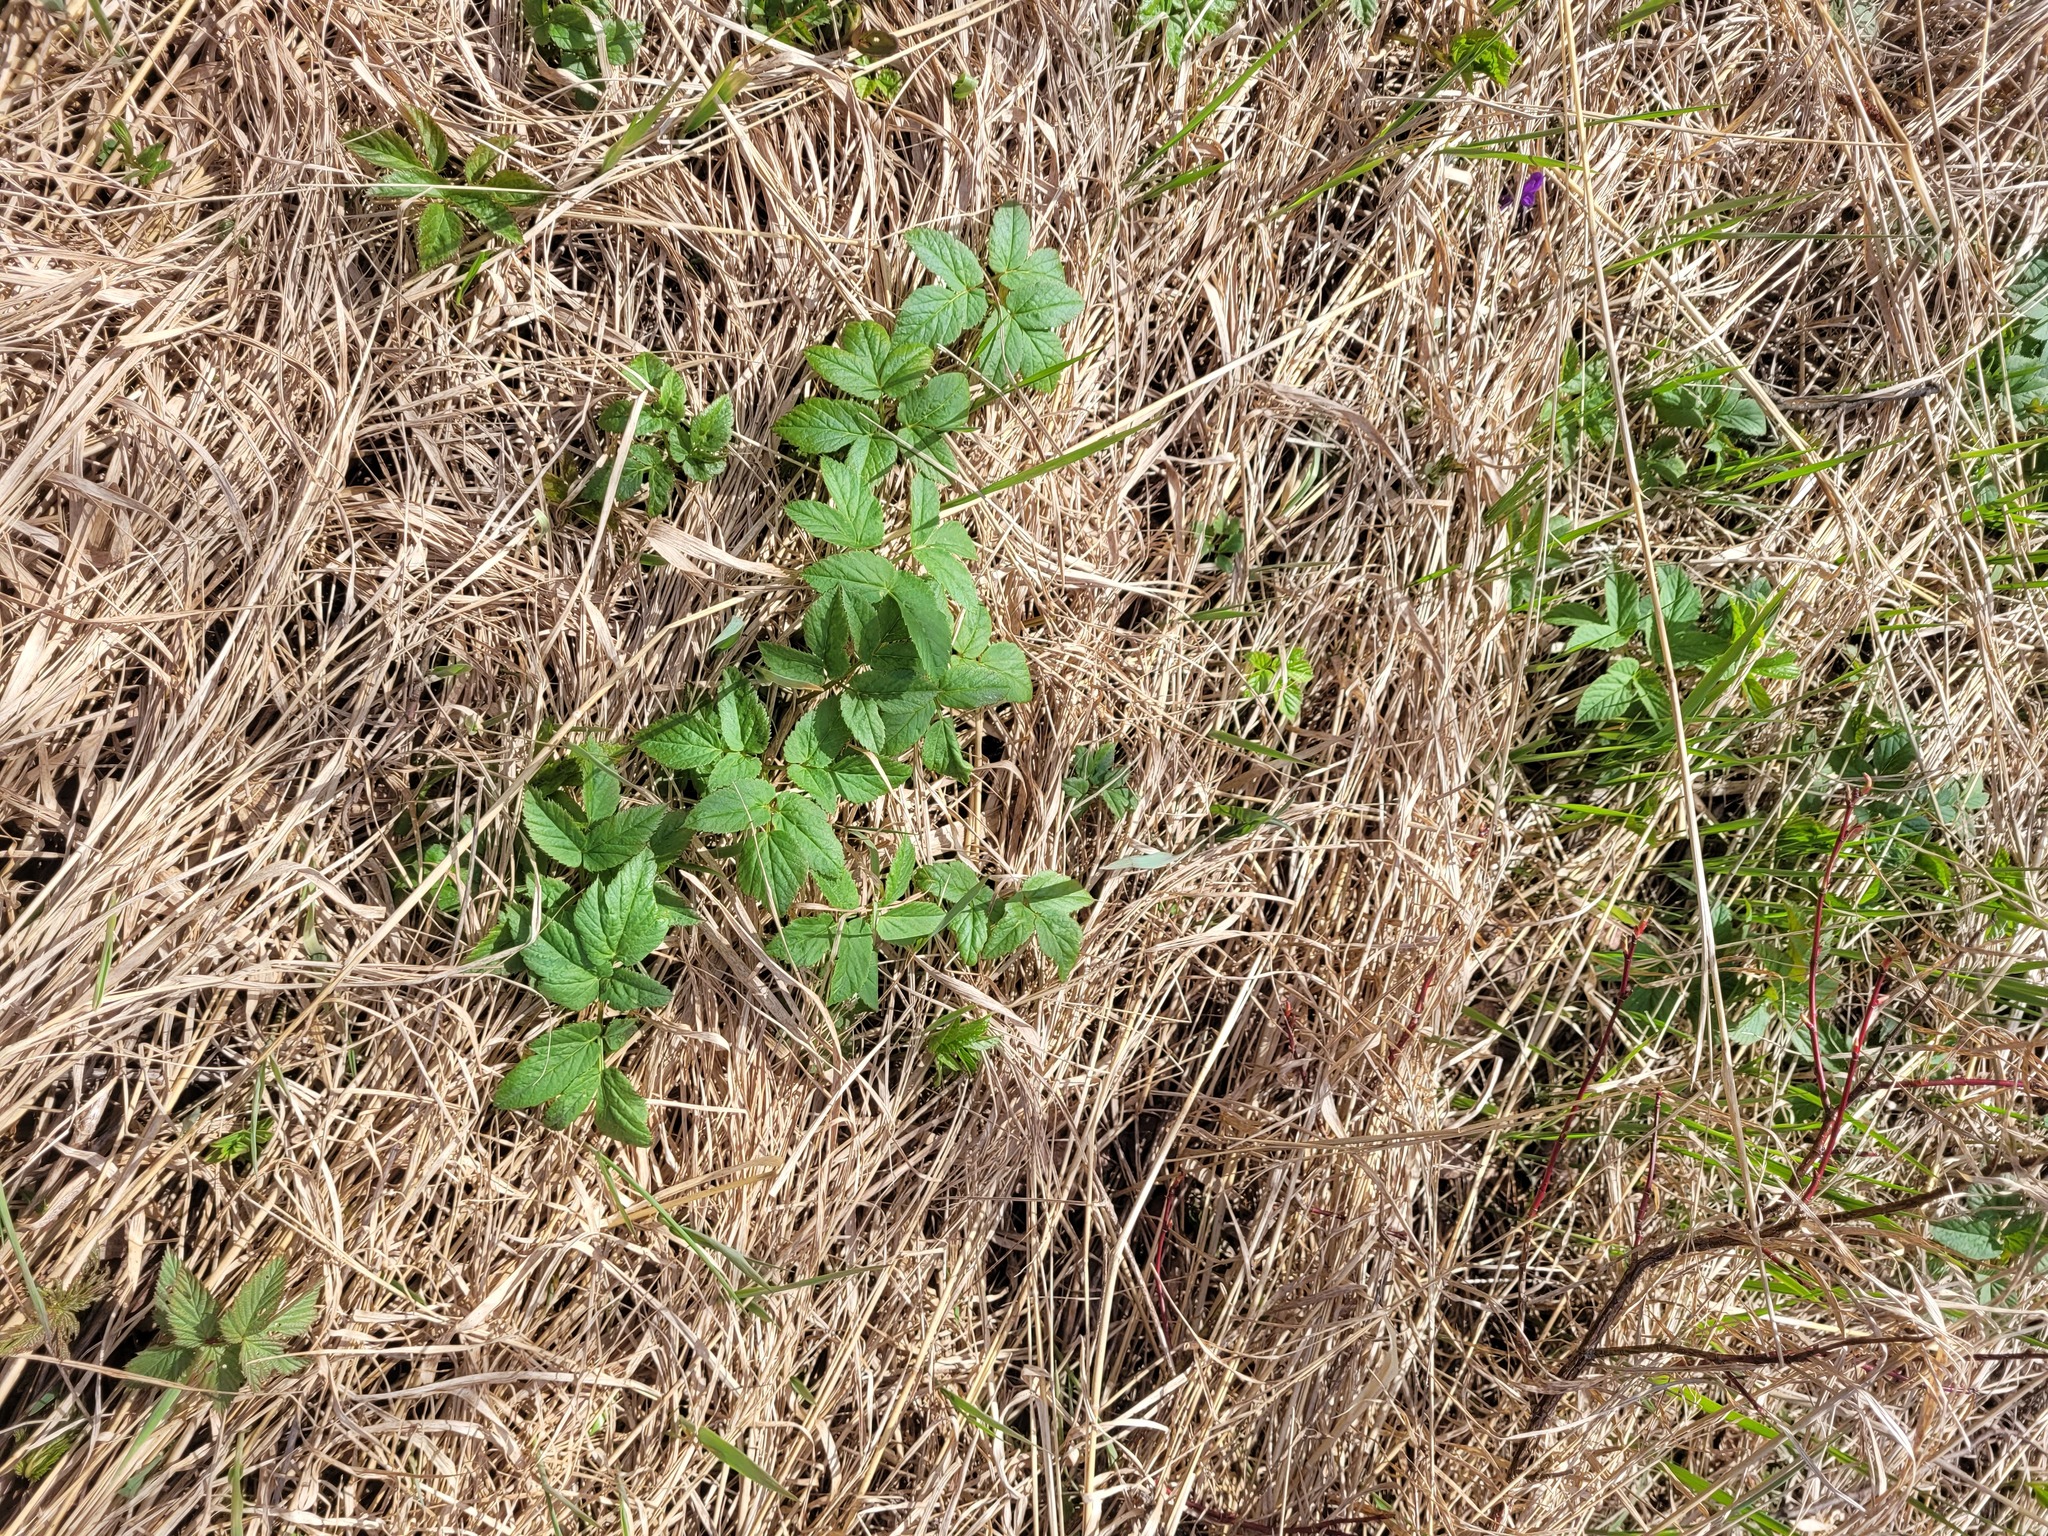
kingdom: Plantae
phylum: Tracheophyta
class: Magnoliopsida
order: Apiales
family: Apiaceae
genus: Aegopodium
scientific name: Aegopodium podagraria
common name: Ground-elder
